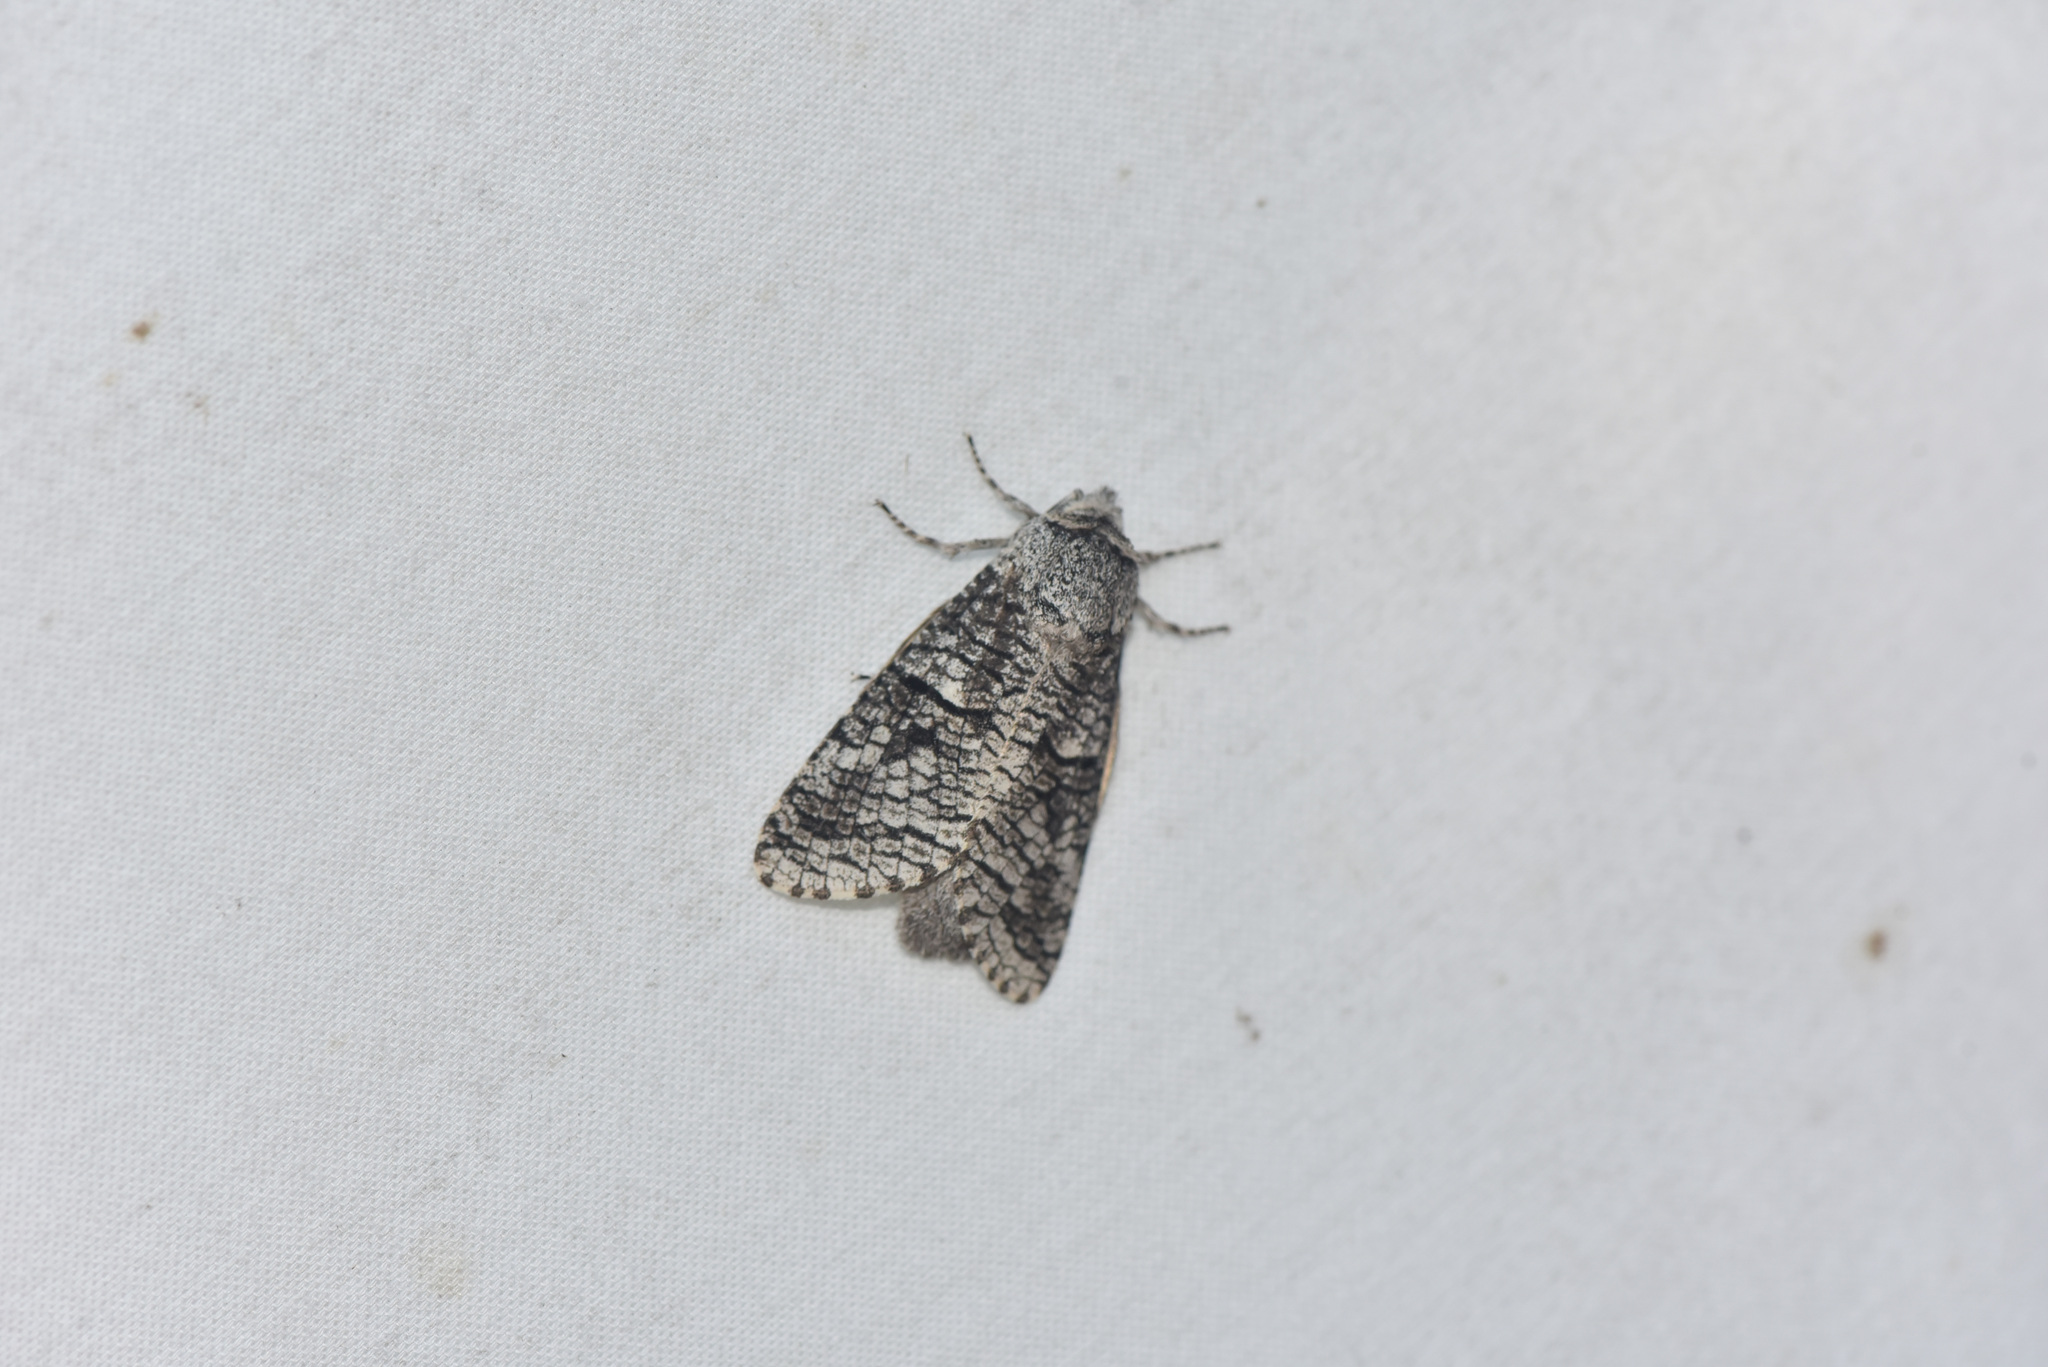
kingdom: Animalia
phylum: Arthropoda
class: Insecta
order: Lepidoptera
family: Cossidae
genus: Acossus
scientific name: Acossus populi
